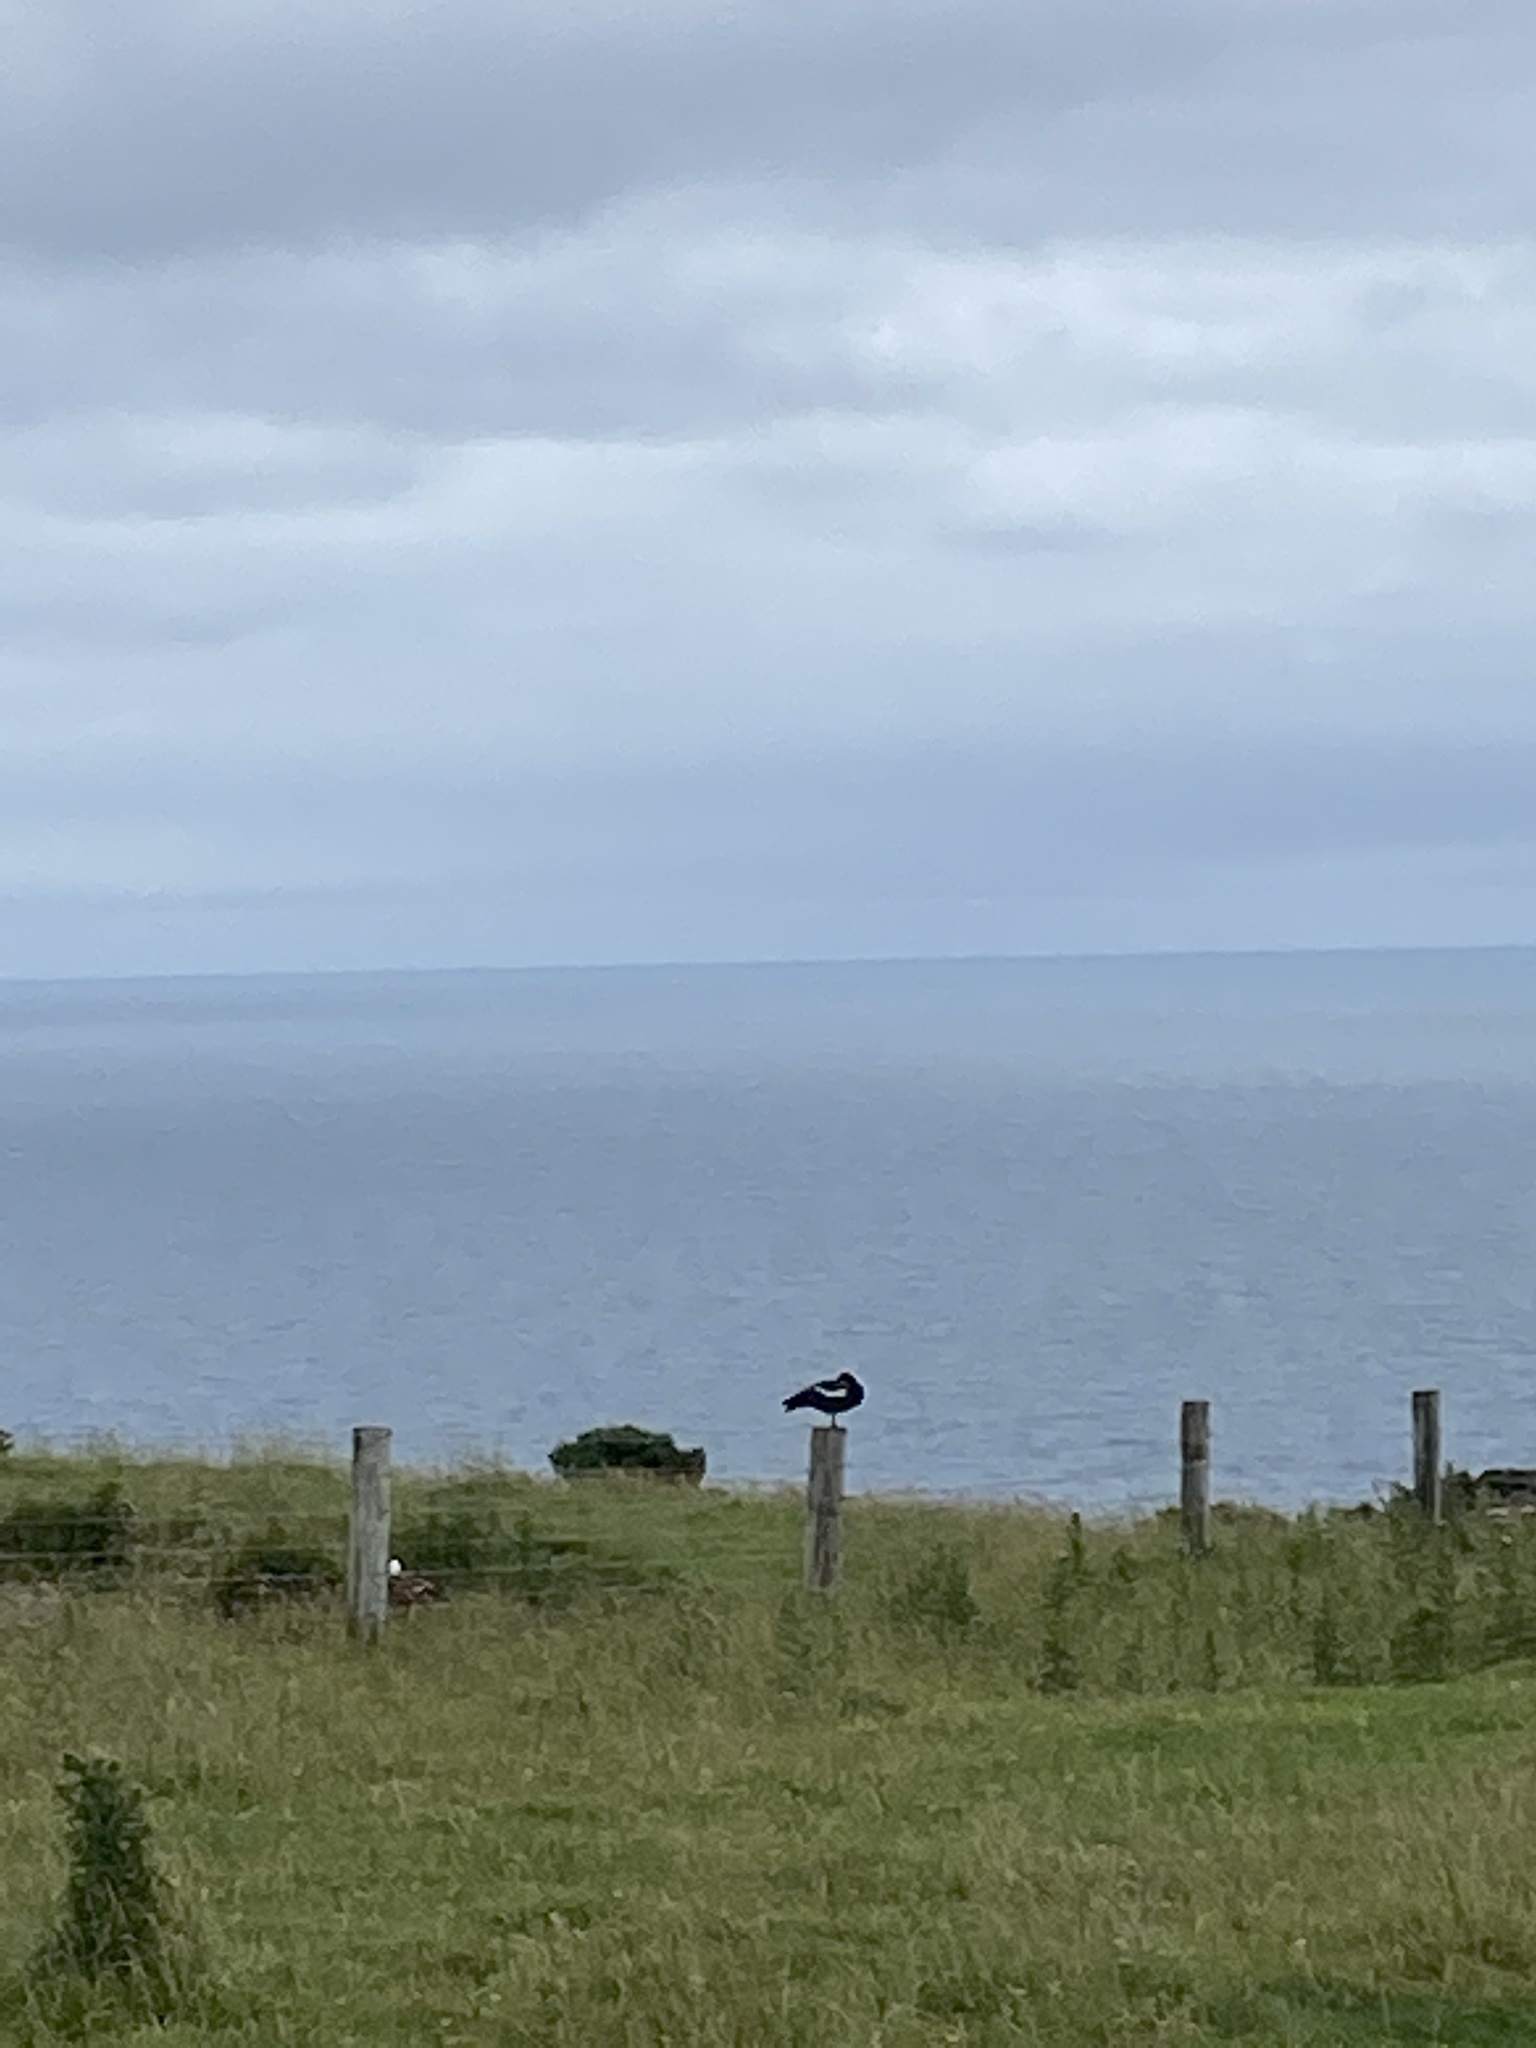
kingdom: Animalia
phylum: Chordata
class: Aves
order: Anseriformes
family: Anatidae
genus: Tadorna
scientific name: Tadorna variegata
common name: Paradise shelduck
